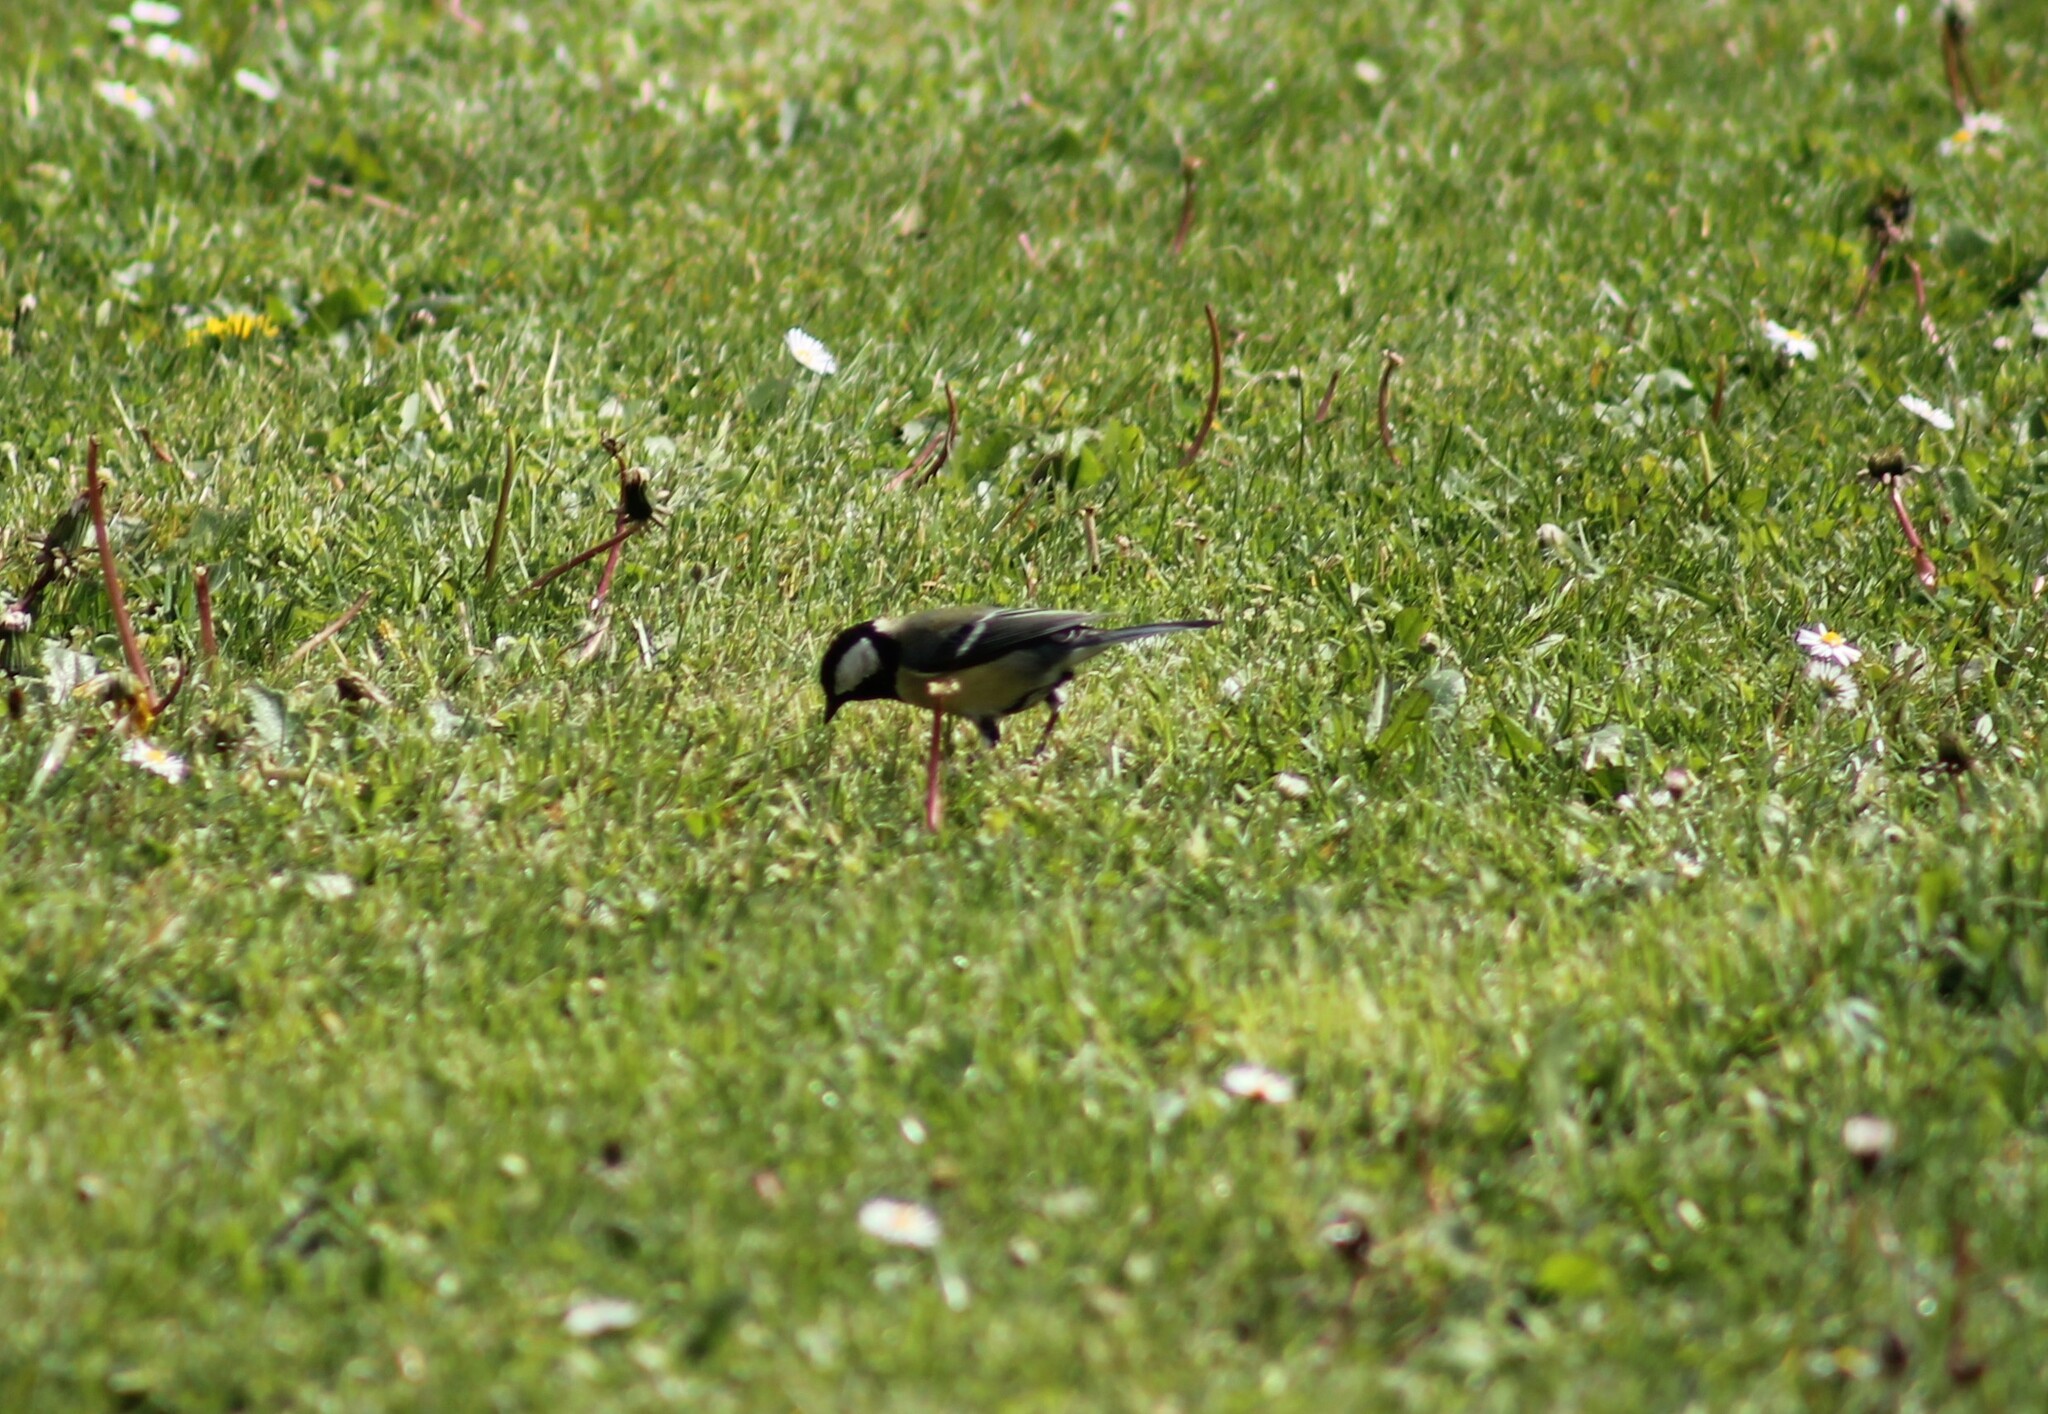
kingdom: Animalia
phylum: Chordata
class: Aves
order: Passeriformes
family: Paridae
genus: Parus
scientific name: Parus major
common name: Great tit
